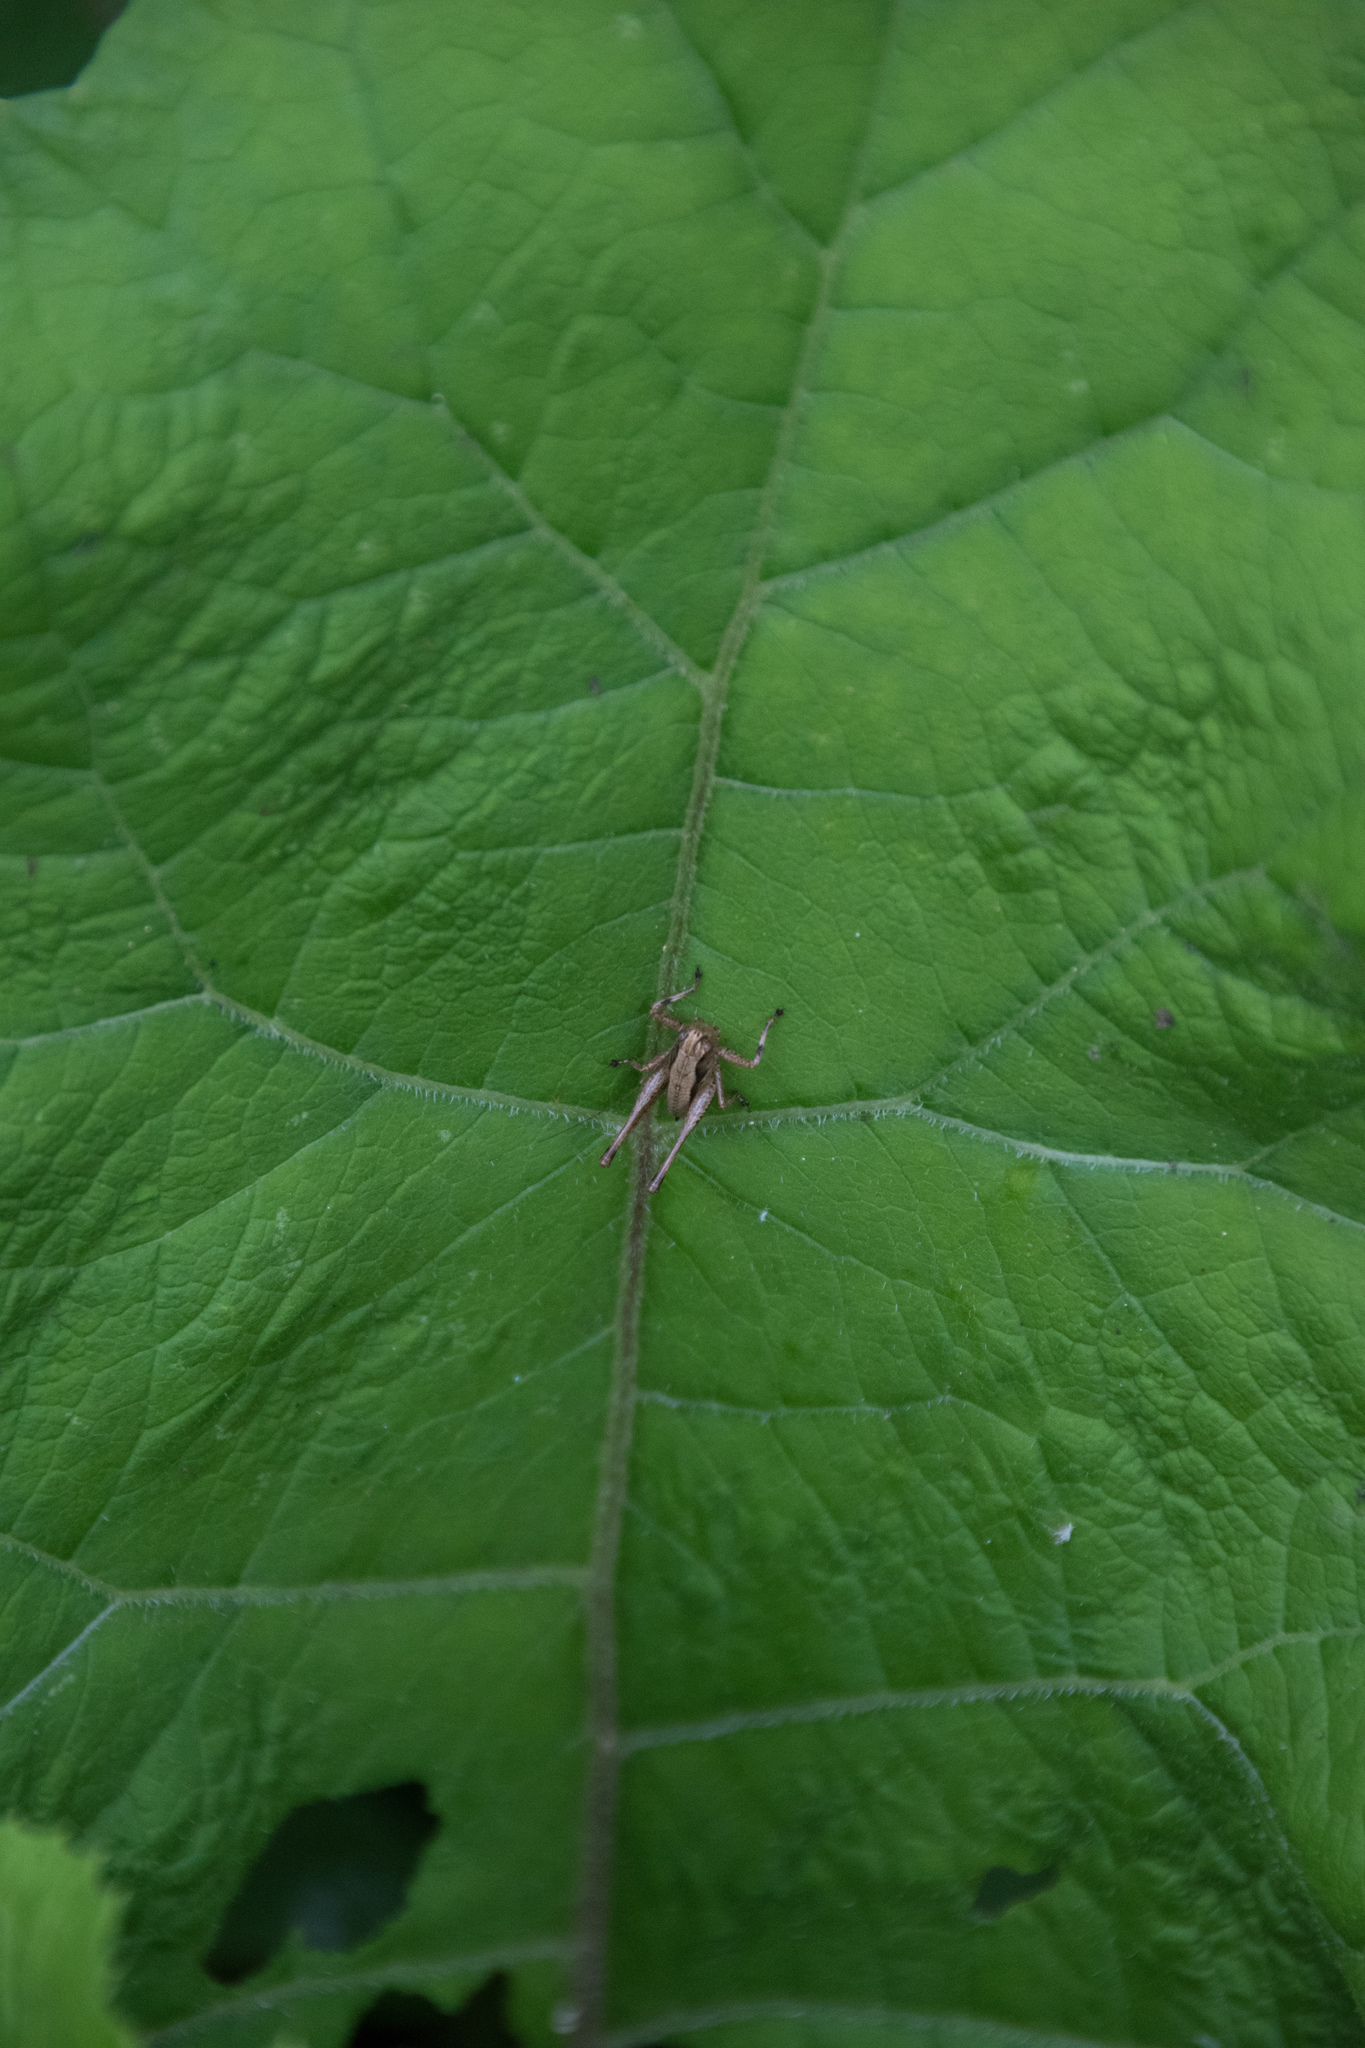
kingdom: Animalia
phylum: Arthropoda
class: Insecta
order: Orthoptera
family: Tettigoniidae
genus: Pholidoptera
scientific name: Pholidoptera griseoaptera
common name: Dark bush-cricket
